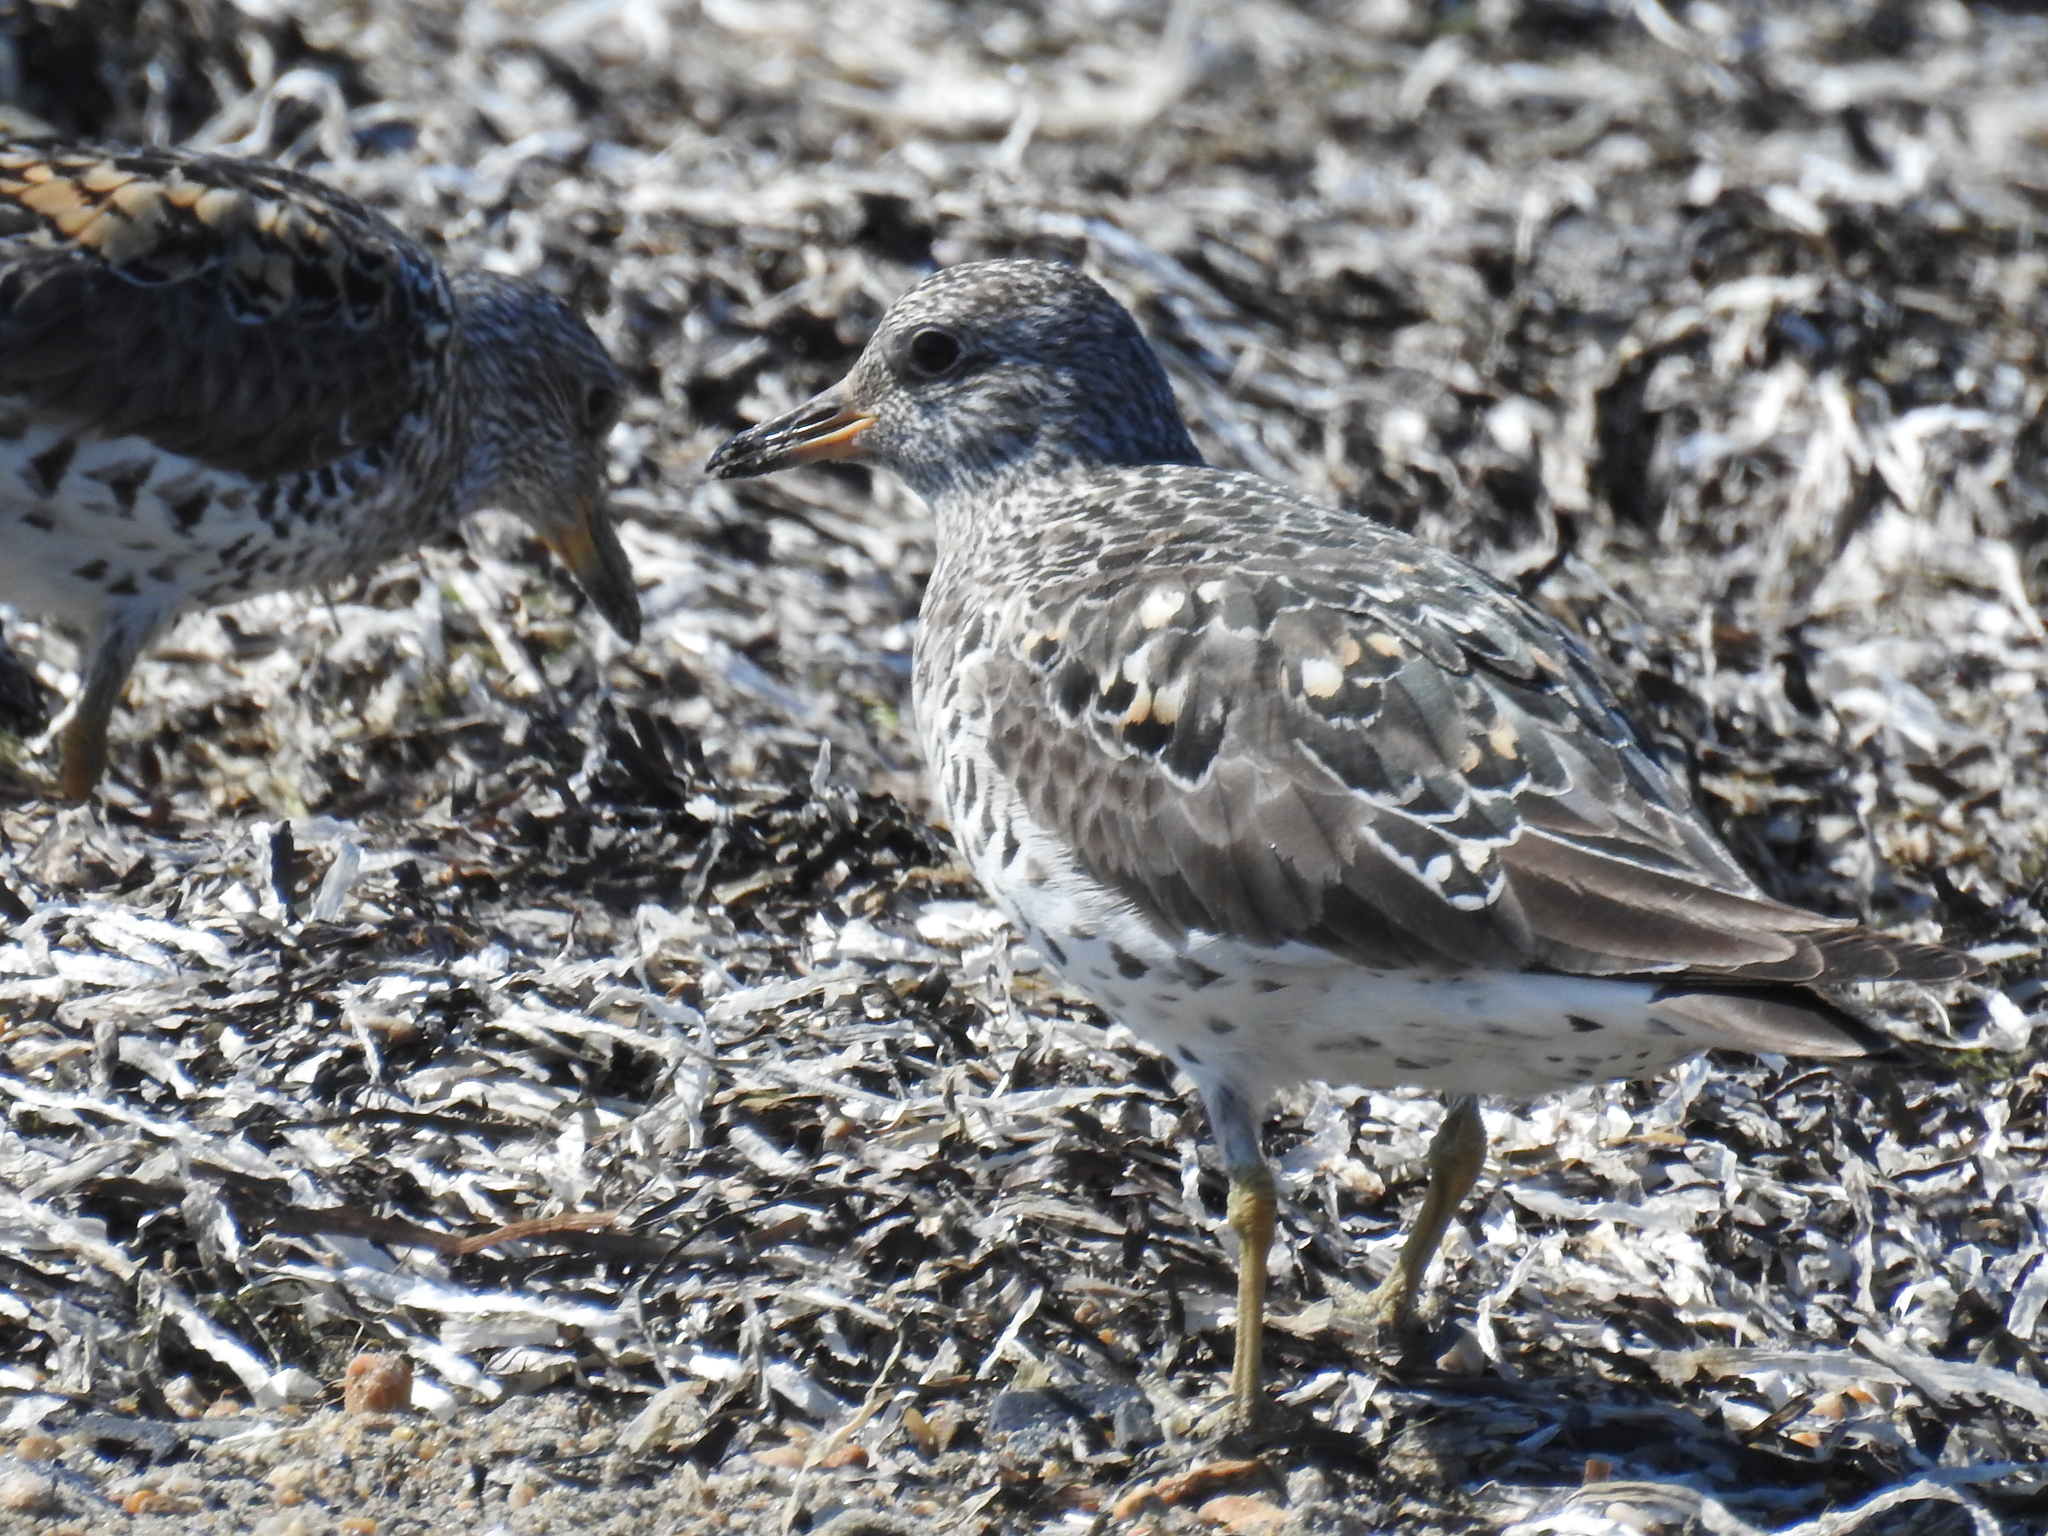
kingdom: Animalia
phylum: Chordata
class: Aves
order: Charadriiformes
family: Scolopacidae
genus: Calidris
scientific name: Calidris virgata
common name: Surfbird
